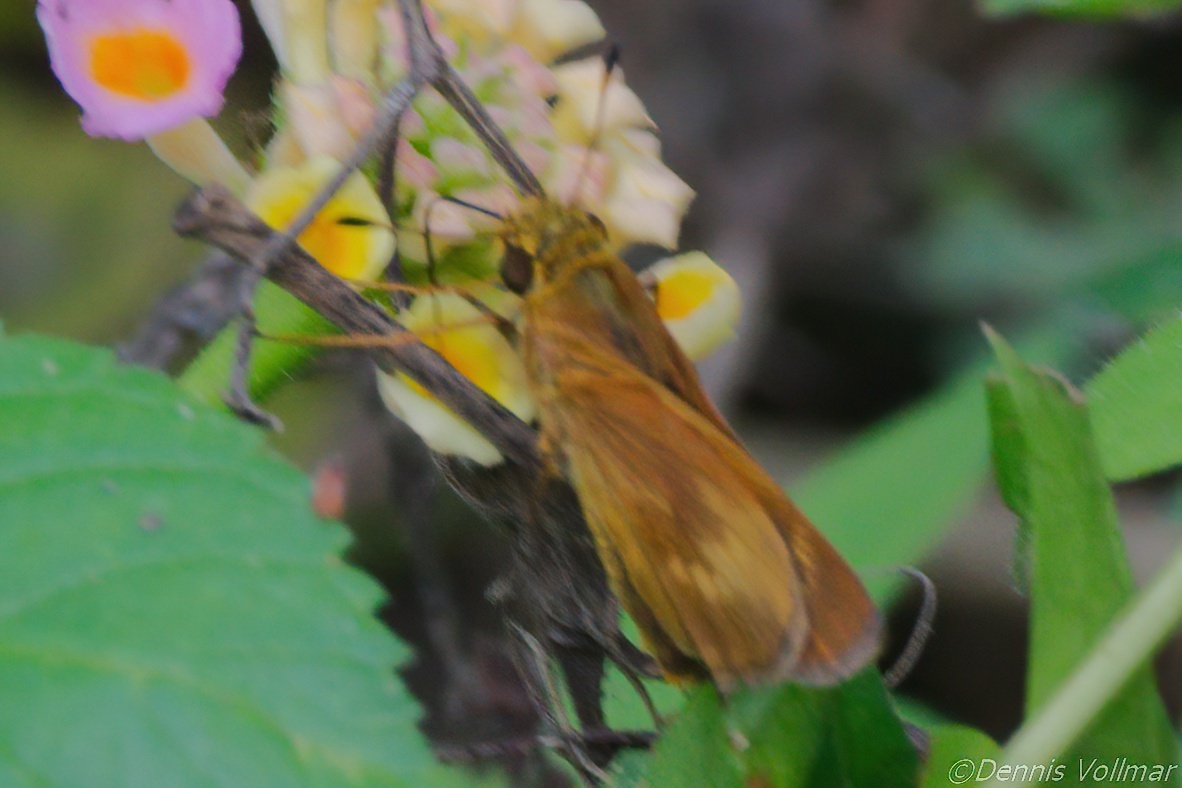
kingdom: Animalia
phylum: Arthropoda
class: Insecta
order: Lepidoptera
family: Hesperiidae
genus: Polites
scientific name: Polites otho
